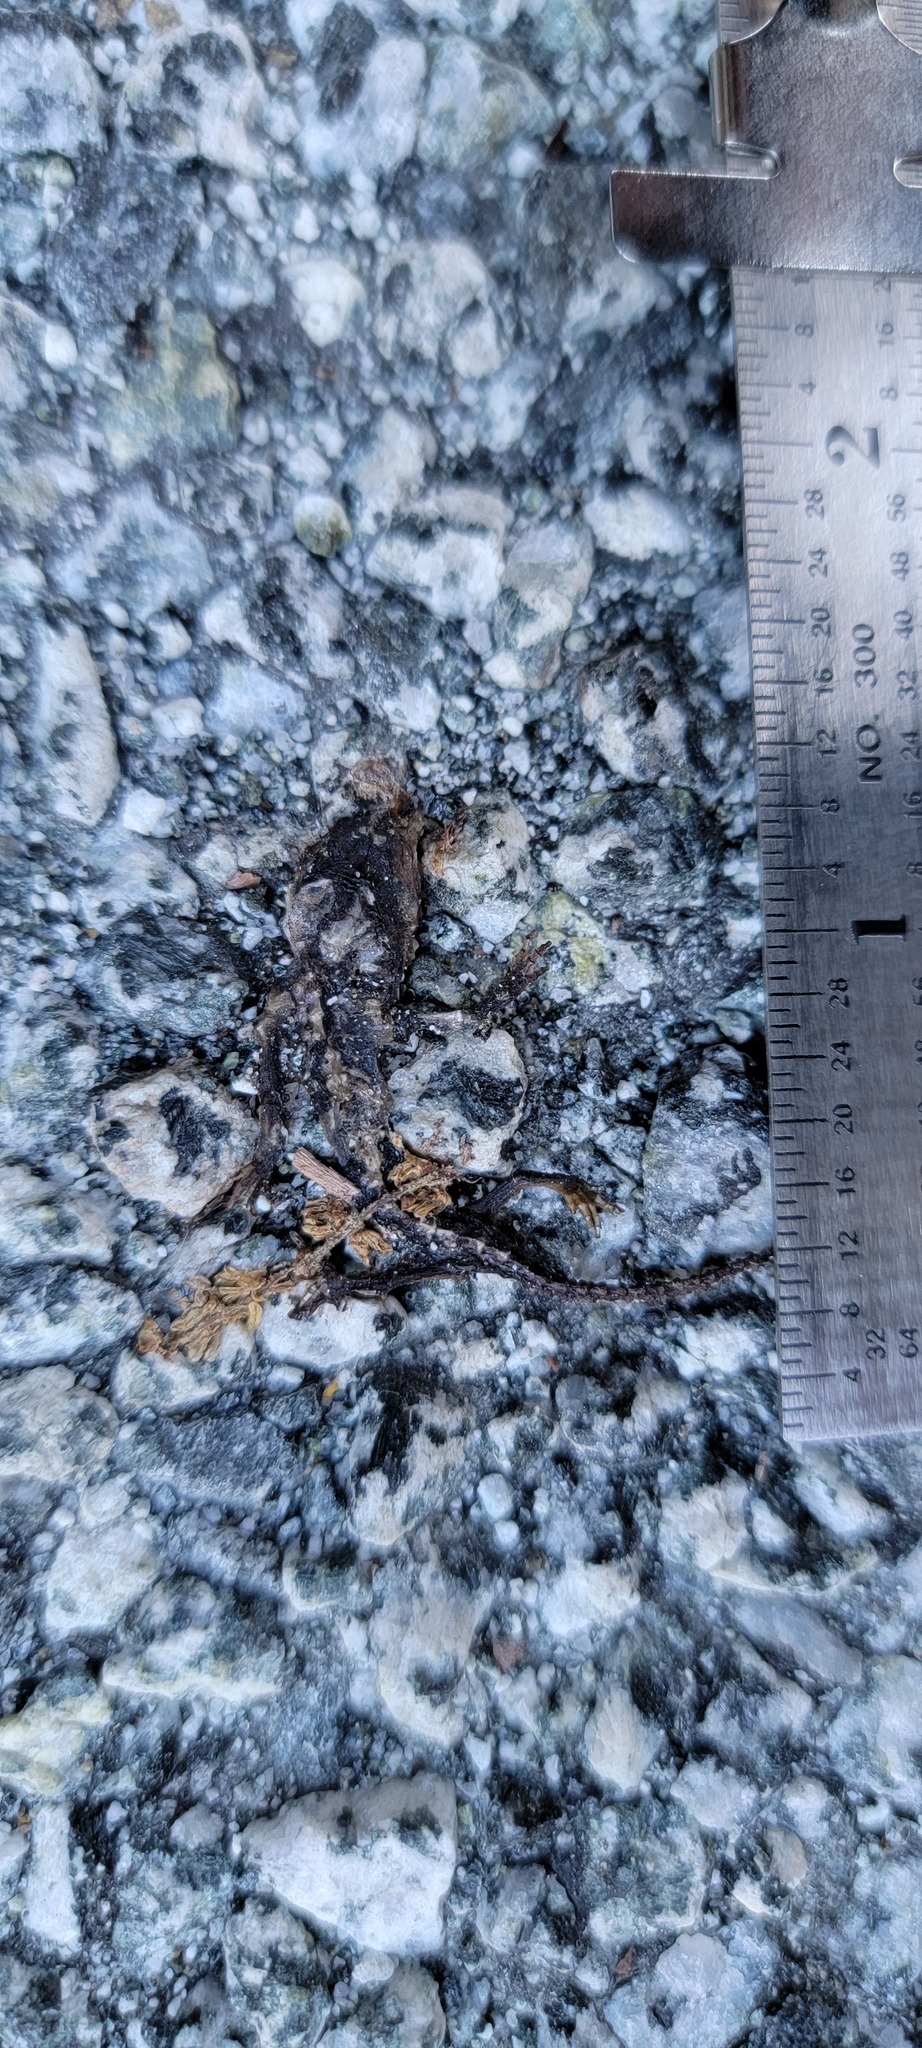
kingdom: Animalia
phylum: Chordata
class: Amphibia
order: Caudata
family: Salamandridae
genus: Taricha
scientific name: Taricha
